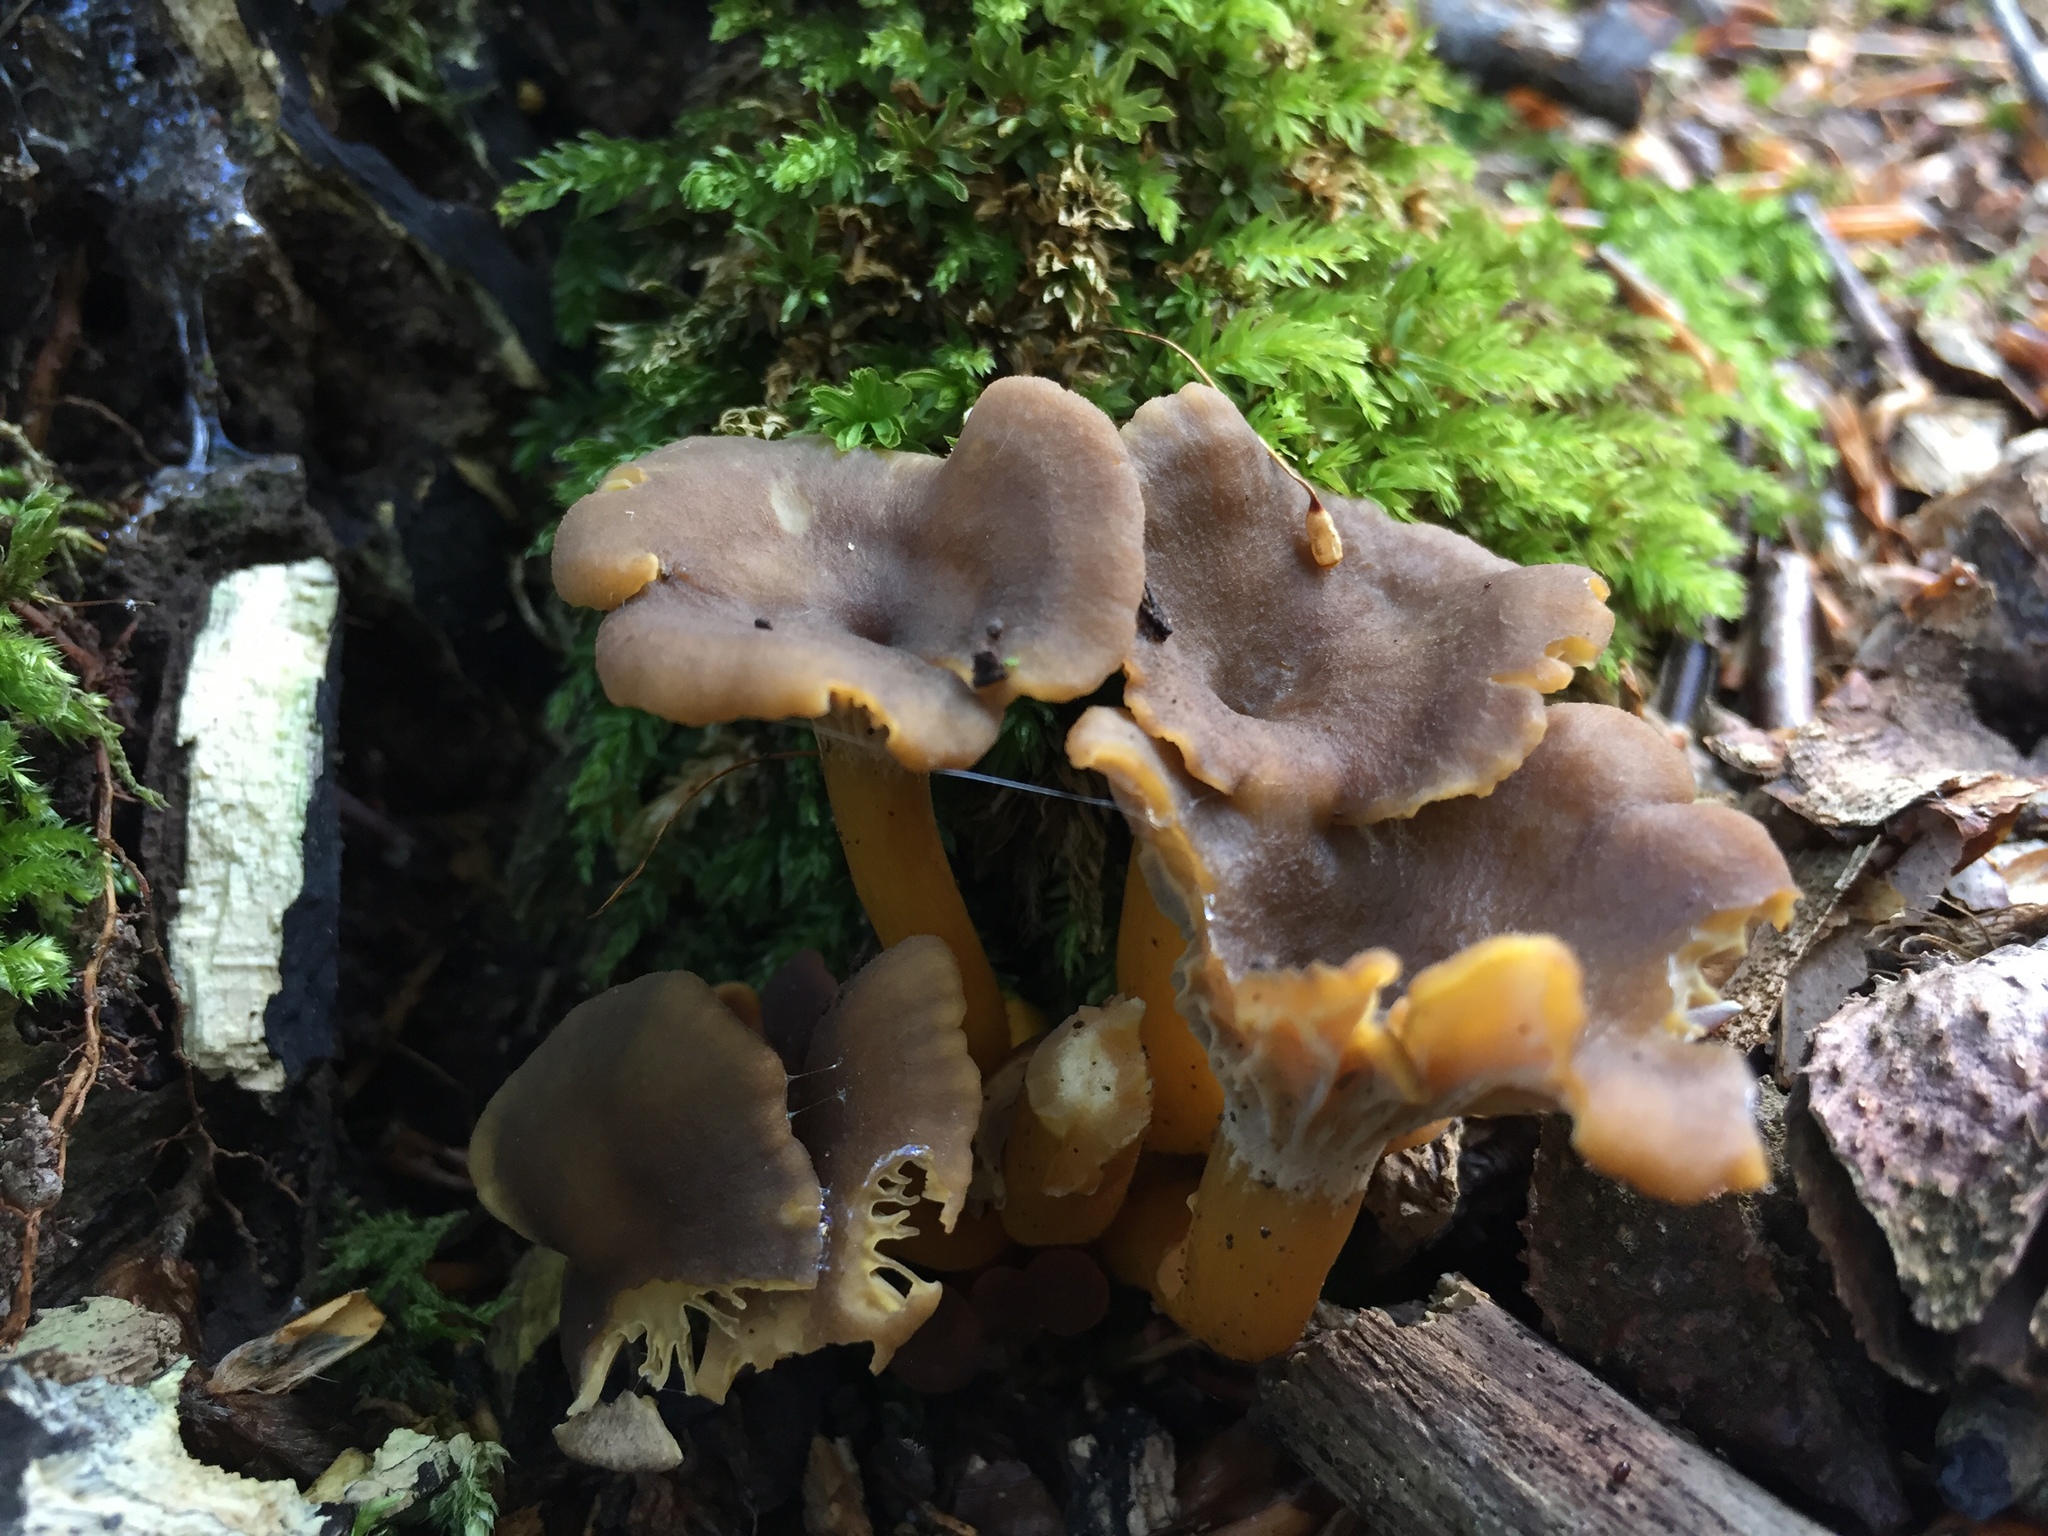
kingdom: Fungi
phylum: Basidiomycota
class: Agaricomycetes
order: Cantharellales
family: Hydnaceae
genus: Craterellus
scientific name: Craterellus tubaeformis
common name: Yellowfoot
